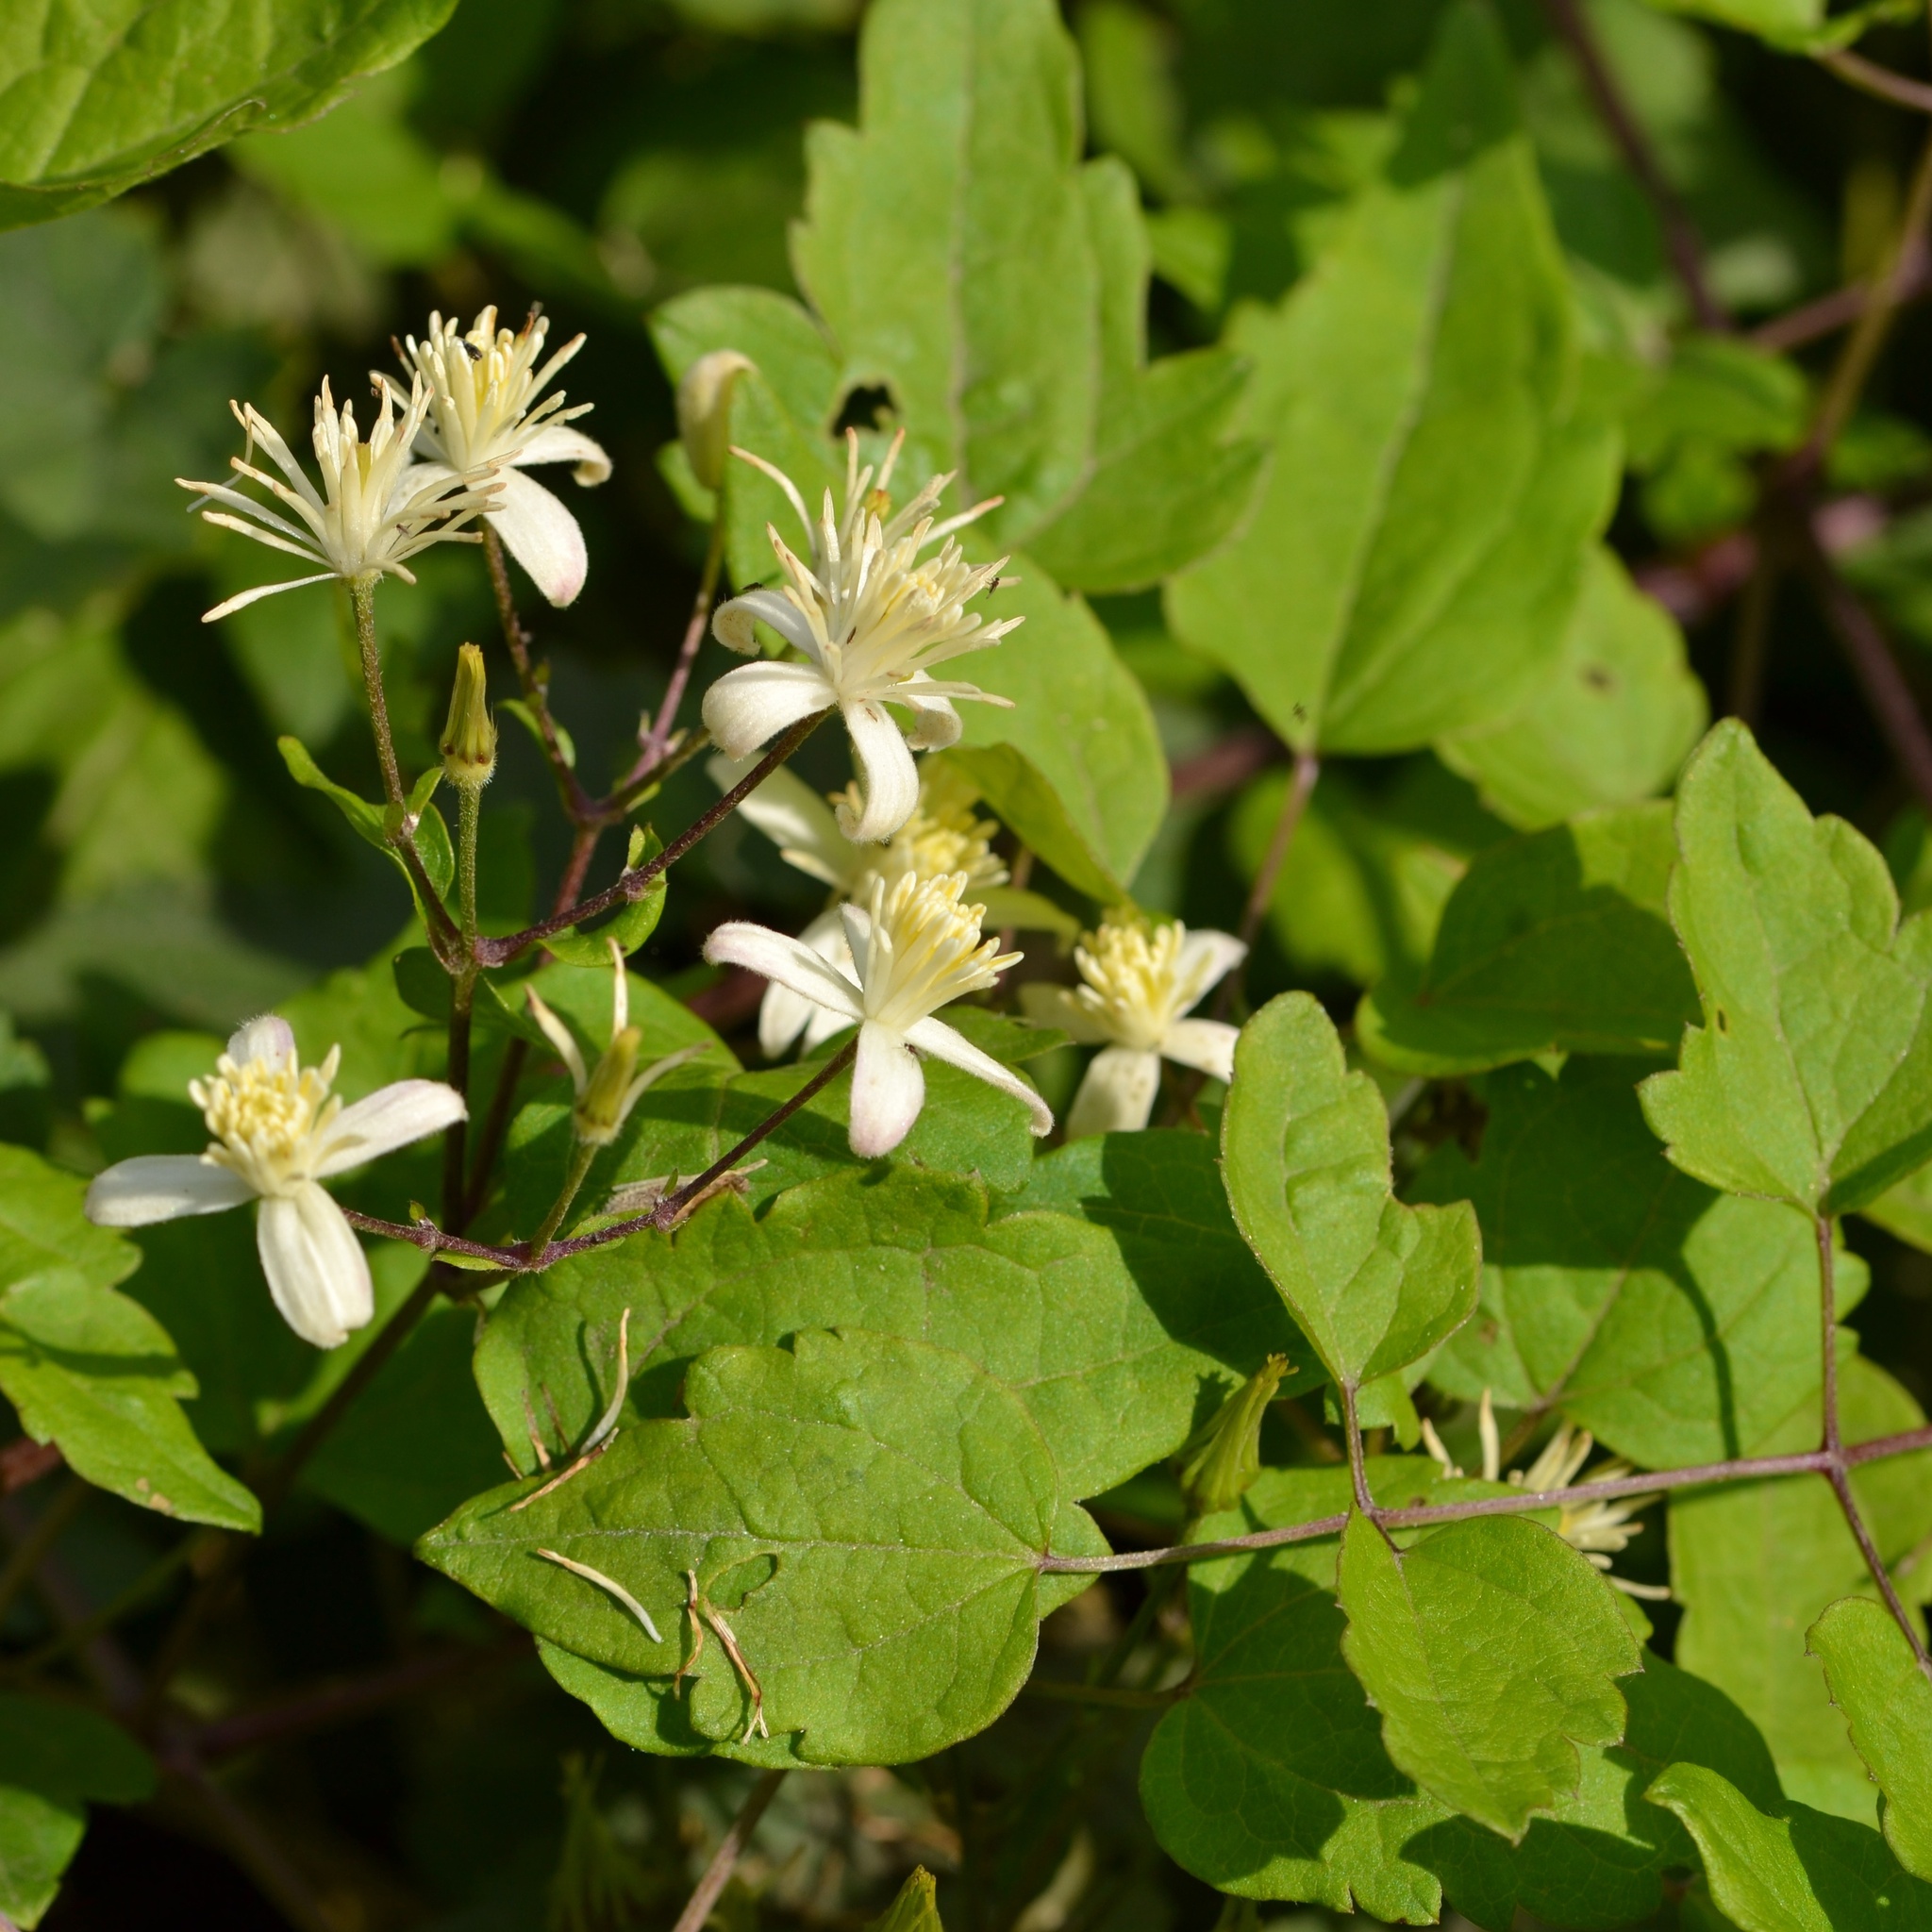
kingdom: Plantae
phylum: Tracheophyta
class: Magnoliopsida
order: Ranunculales
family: Ranunculaceae
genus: Clematis
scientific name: Clematis vitalba
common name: Evergreen clematis
